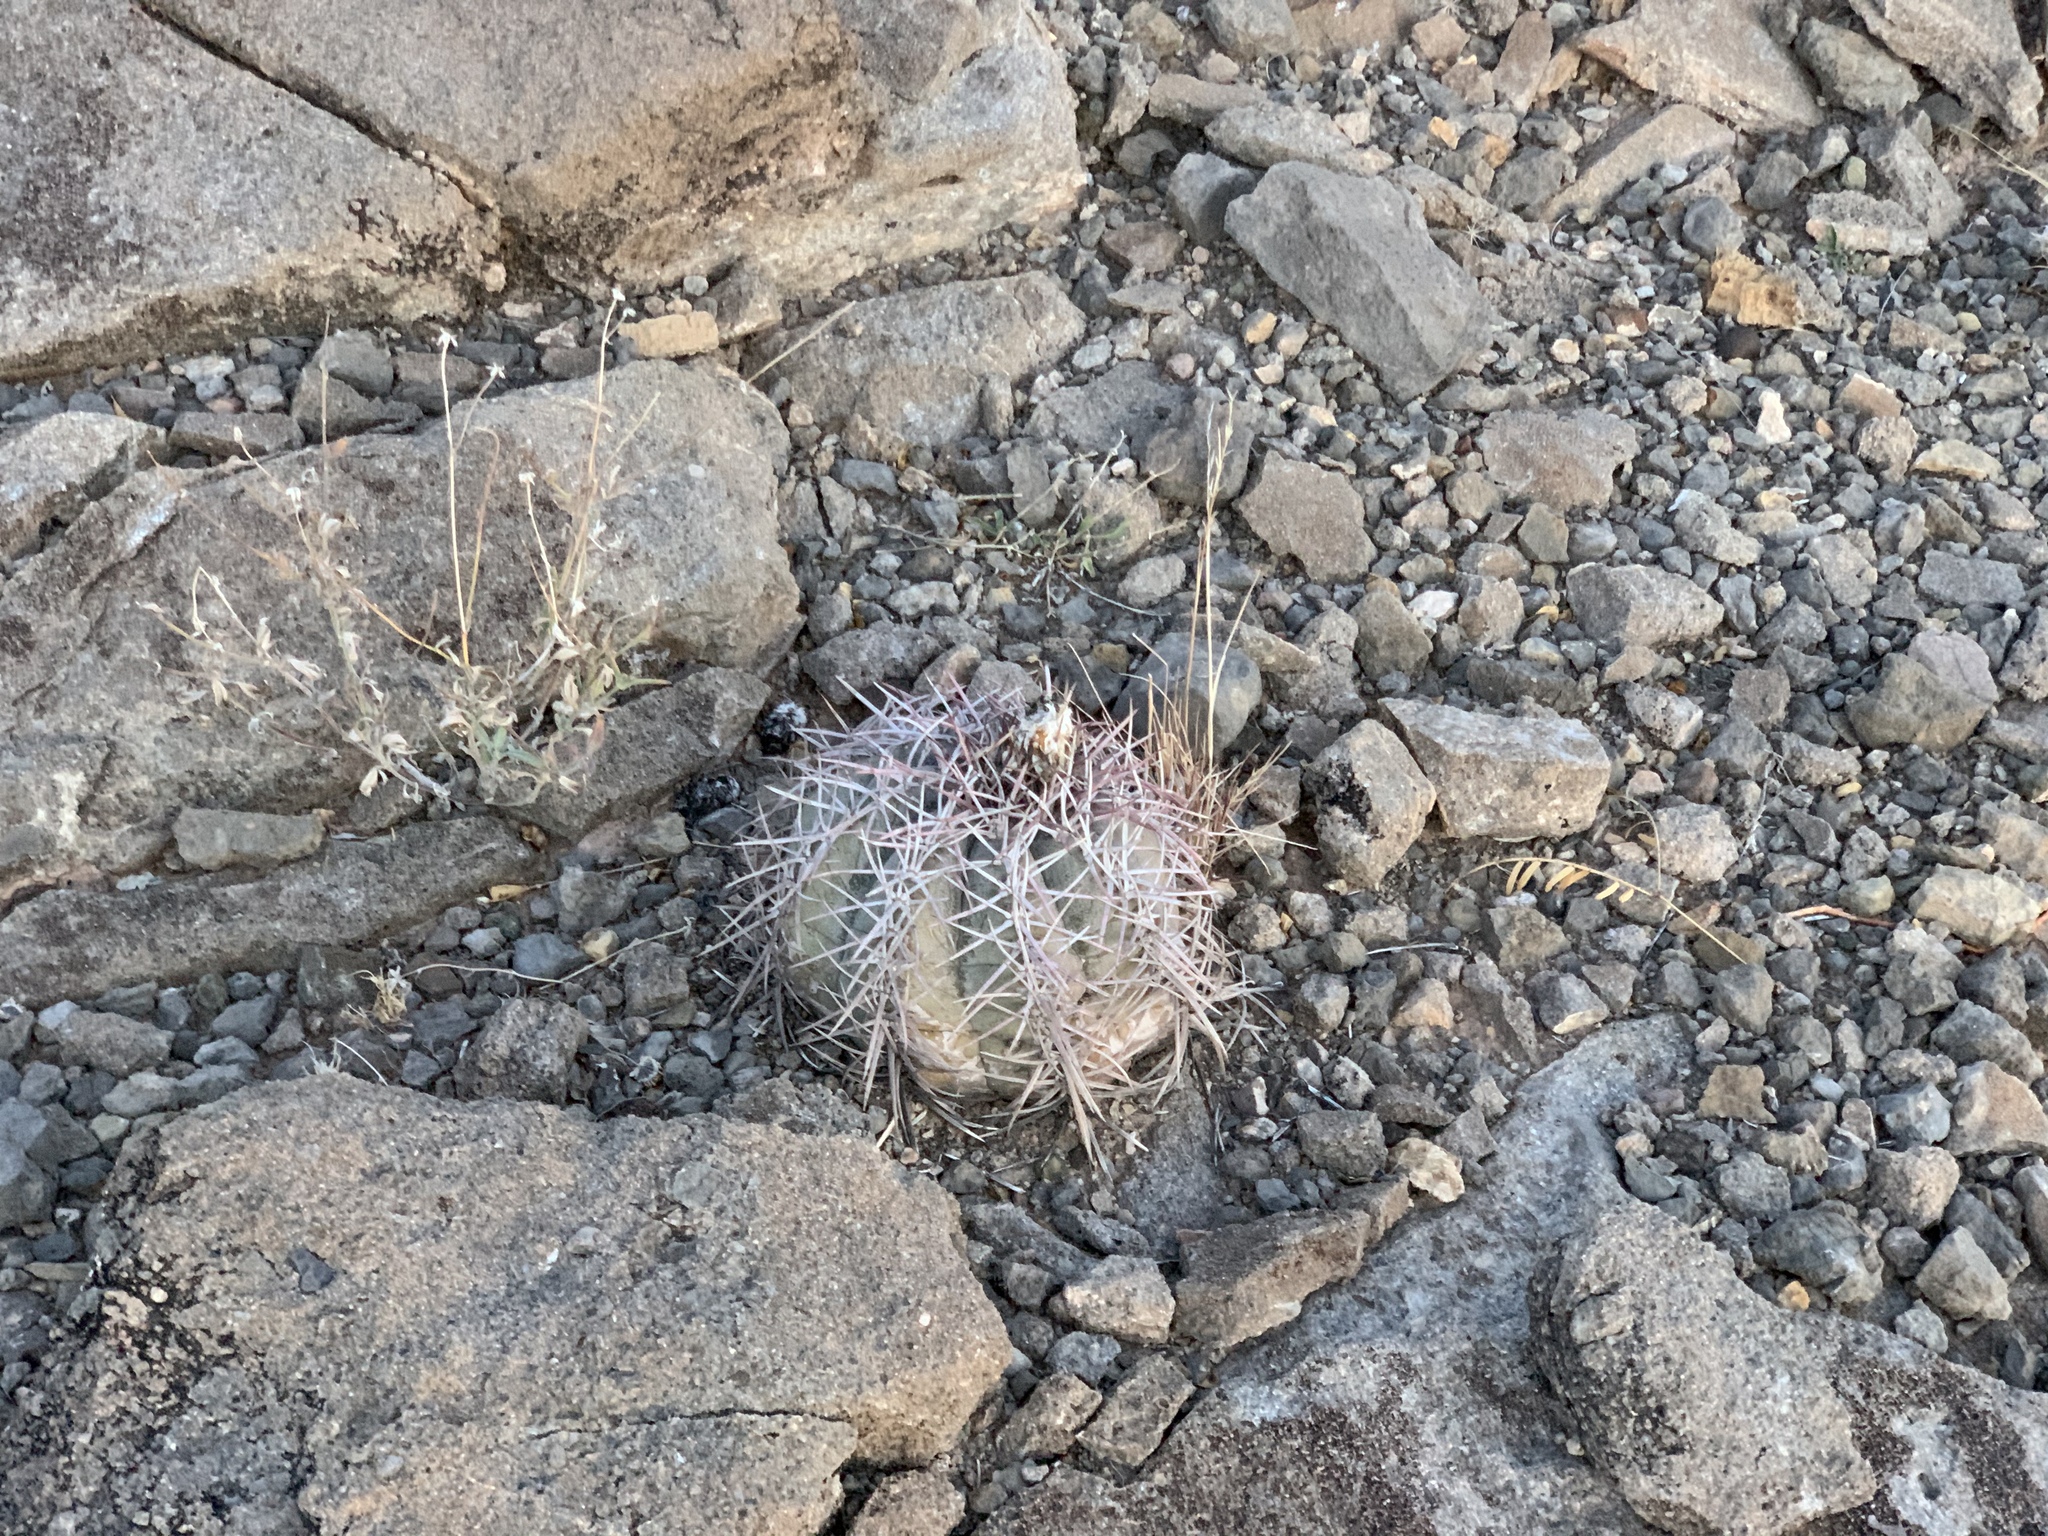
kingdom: Plantae
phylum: Tracheophyta
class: Magnoliopsida
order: Caryophyllales
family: Cactaceae
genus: Echinocactus
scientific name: Echinocactus horizonthalonius
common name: Devilshead
